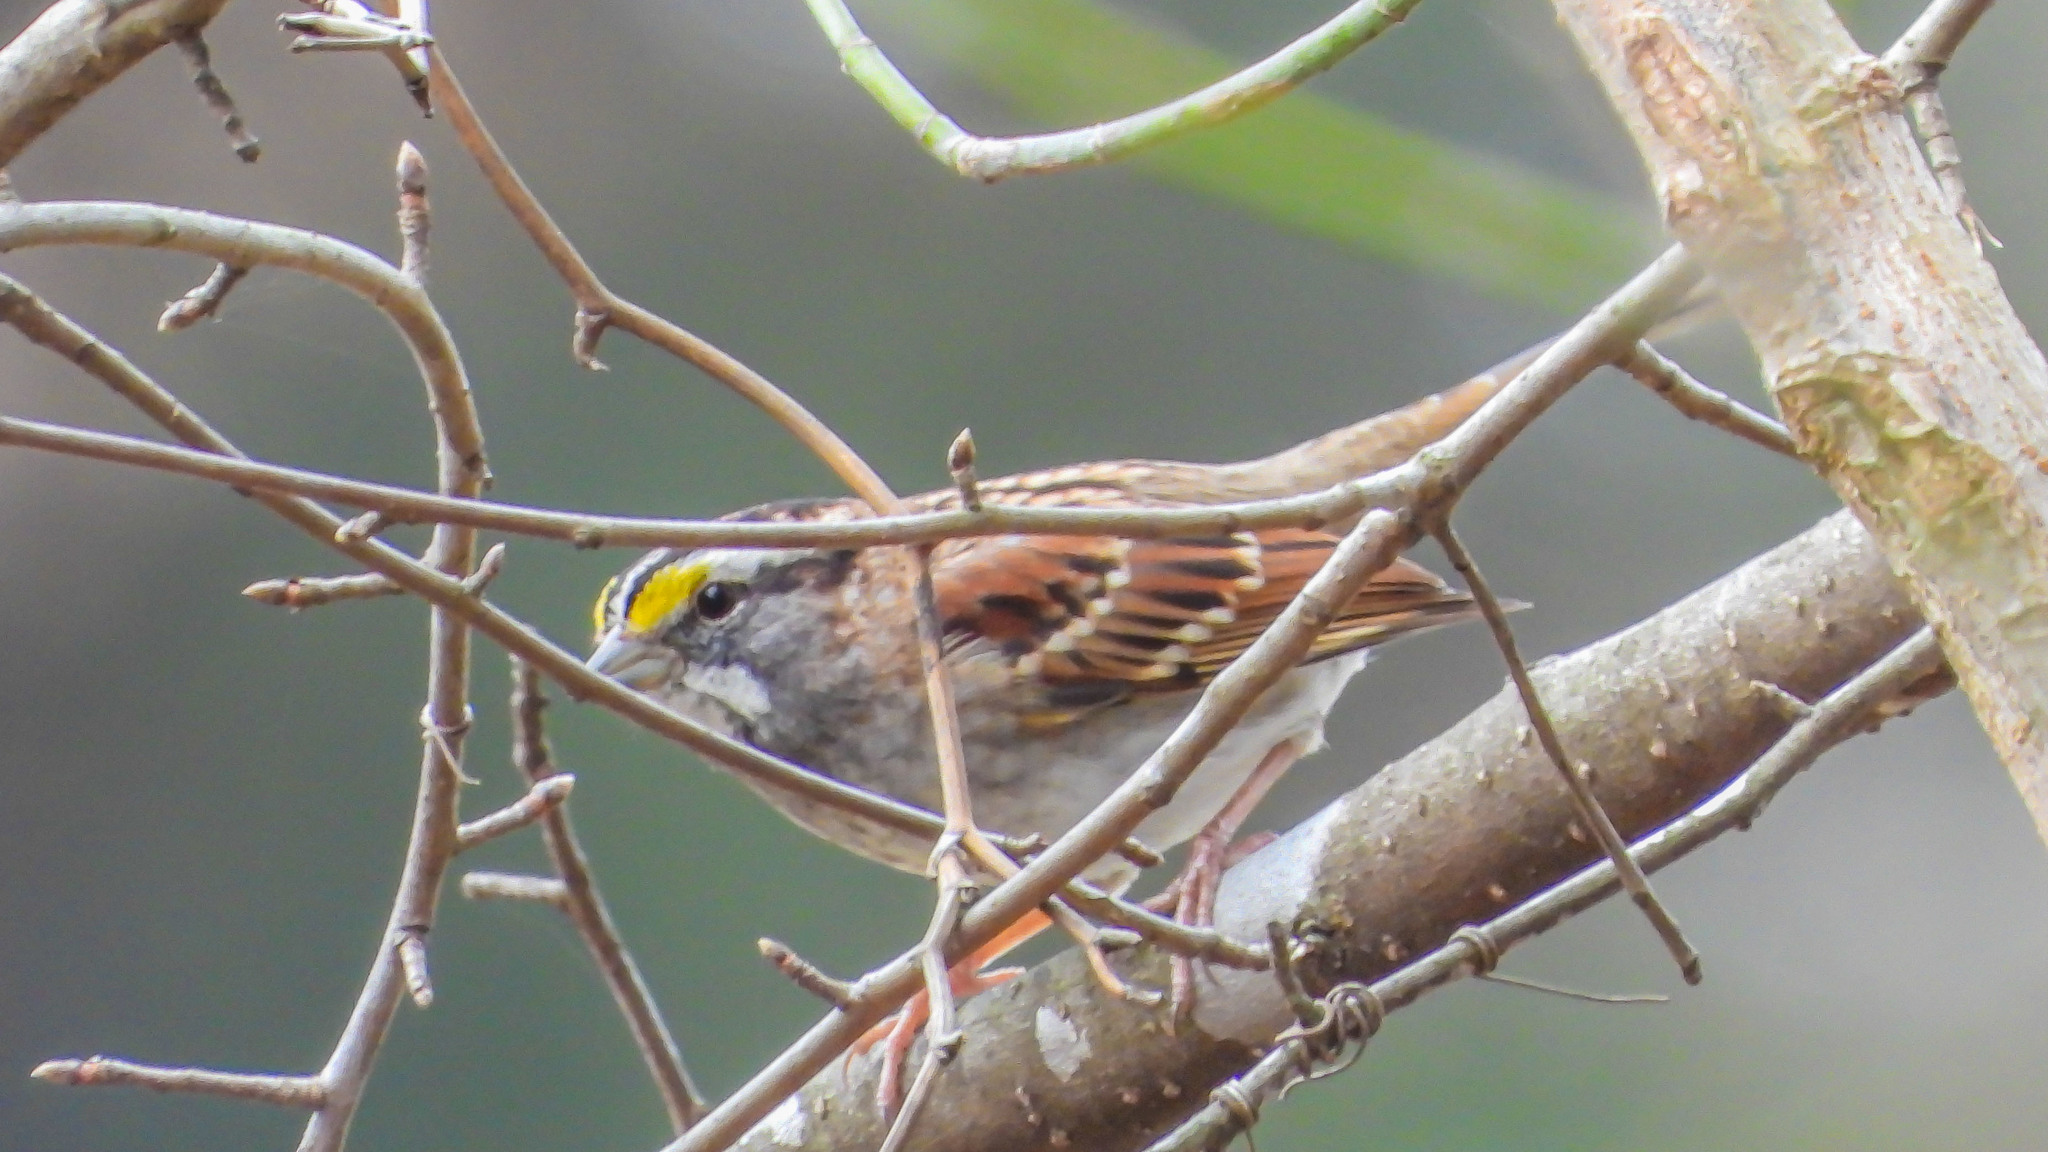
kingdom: Animalia
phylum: Chordata
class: Aves
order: Passeriformes
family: Passerellidae
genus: Zonotrichia
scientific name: Zonotrichia albicollis
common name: White-throated sparrow
